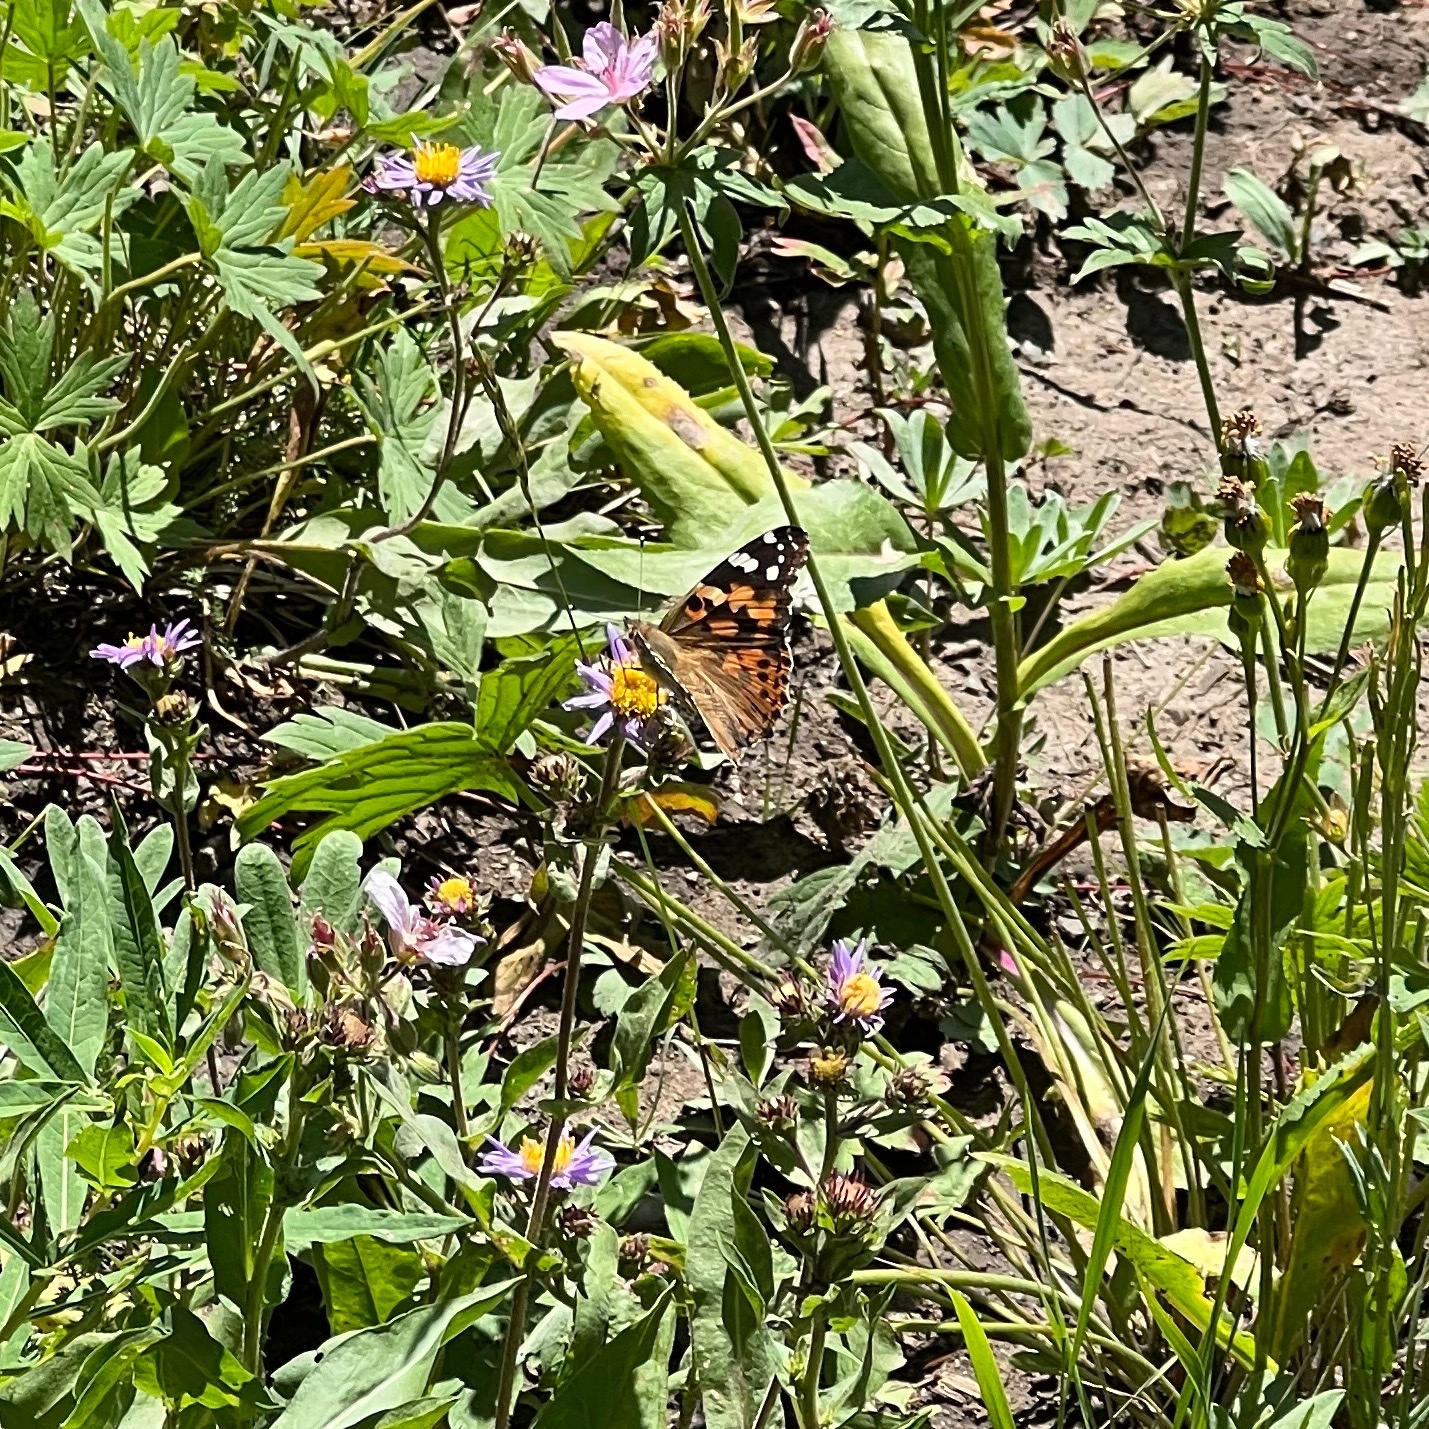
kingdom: Animalia
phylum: Arthropoda
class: Insecta
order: Lepidoptera
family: Nymphalidae
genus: Vanessa
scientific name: Vanessa cardui
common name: Painted lady
